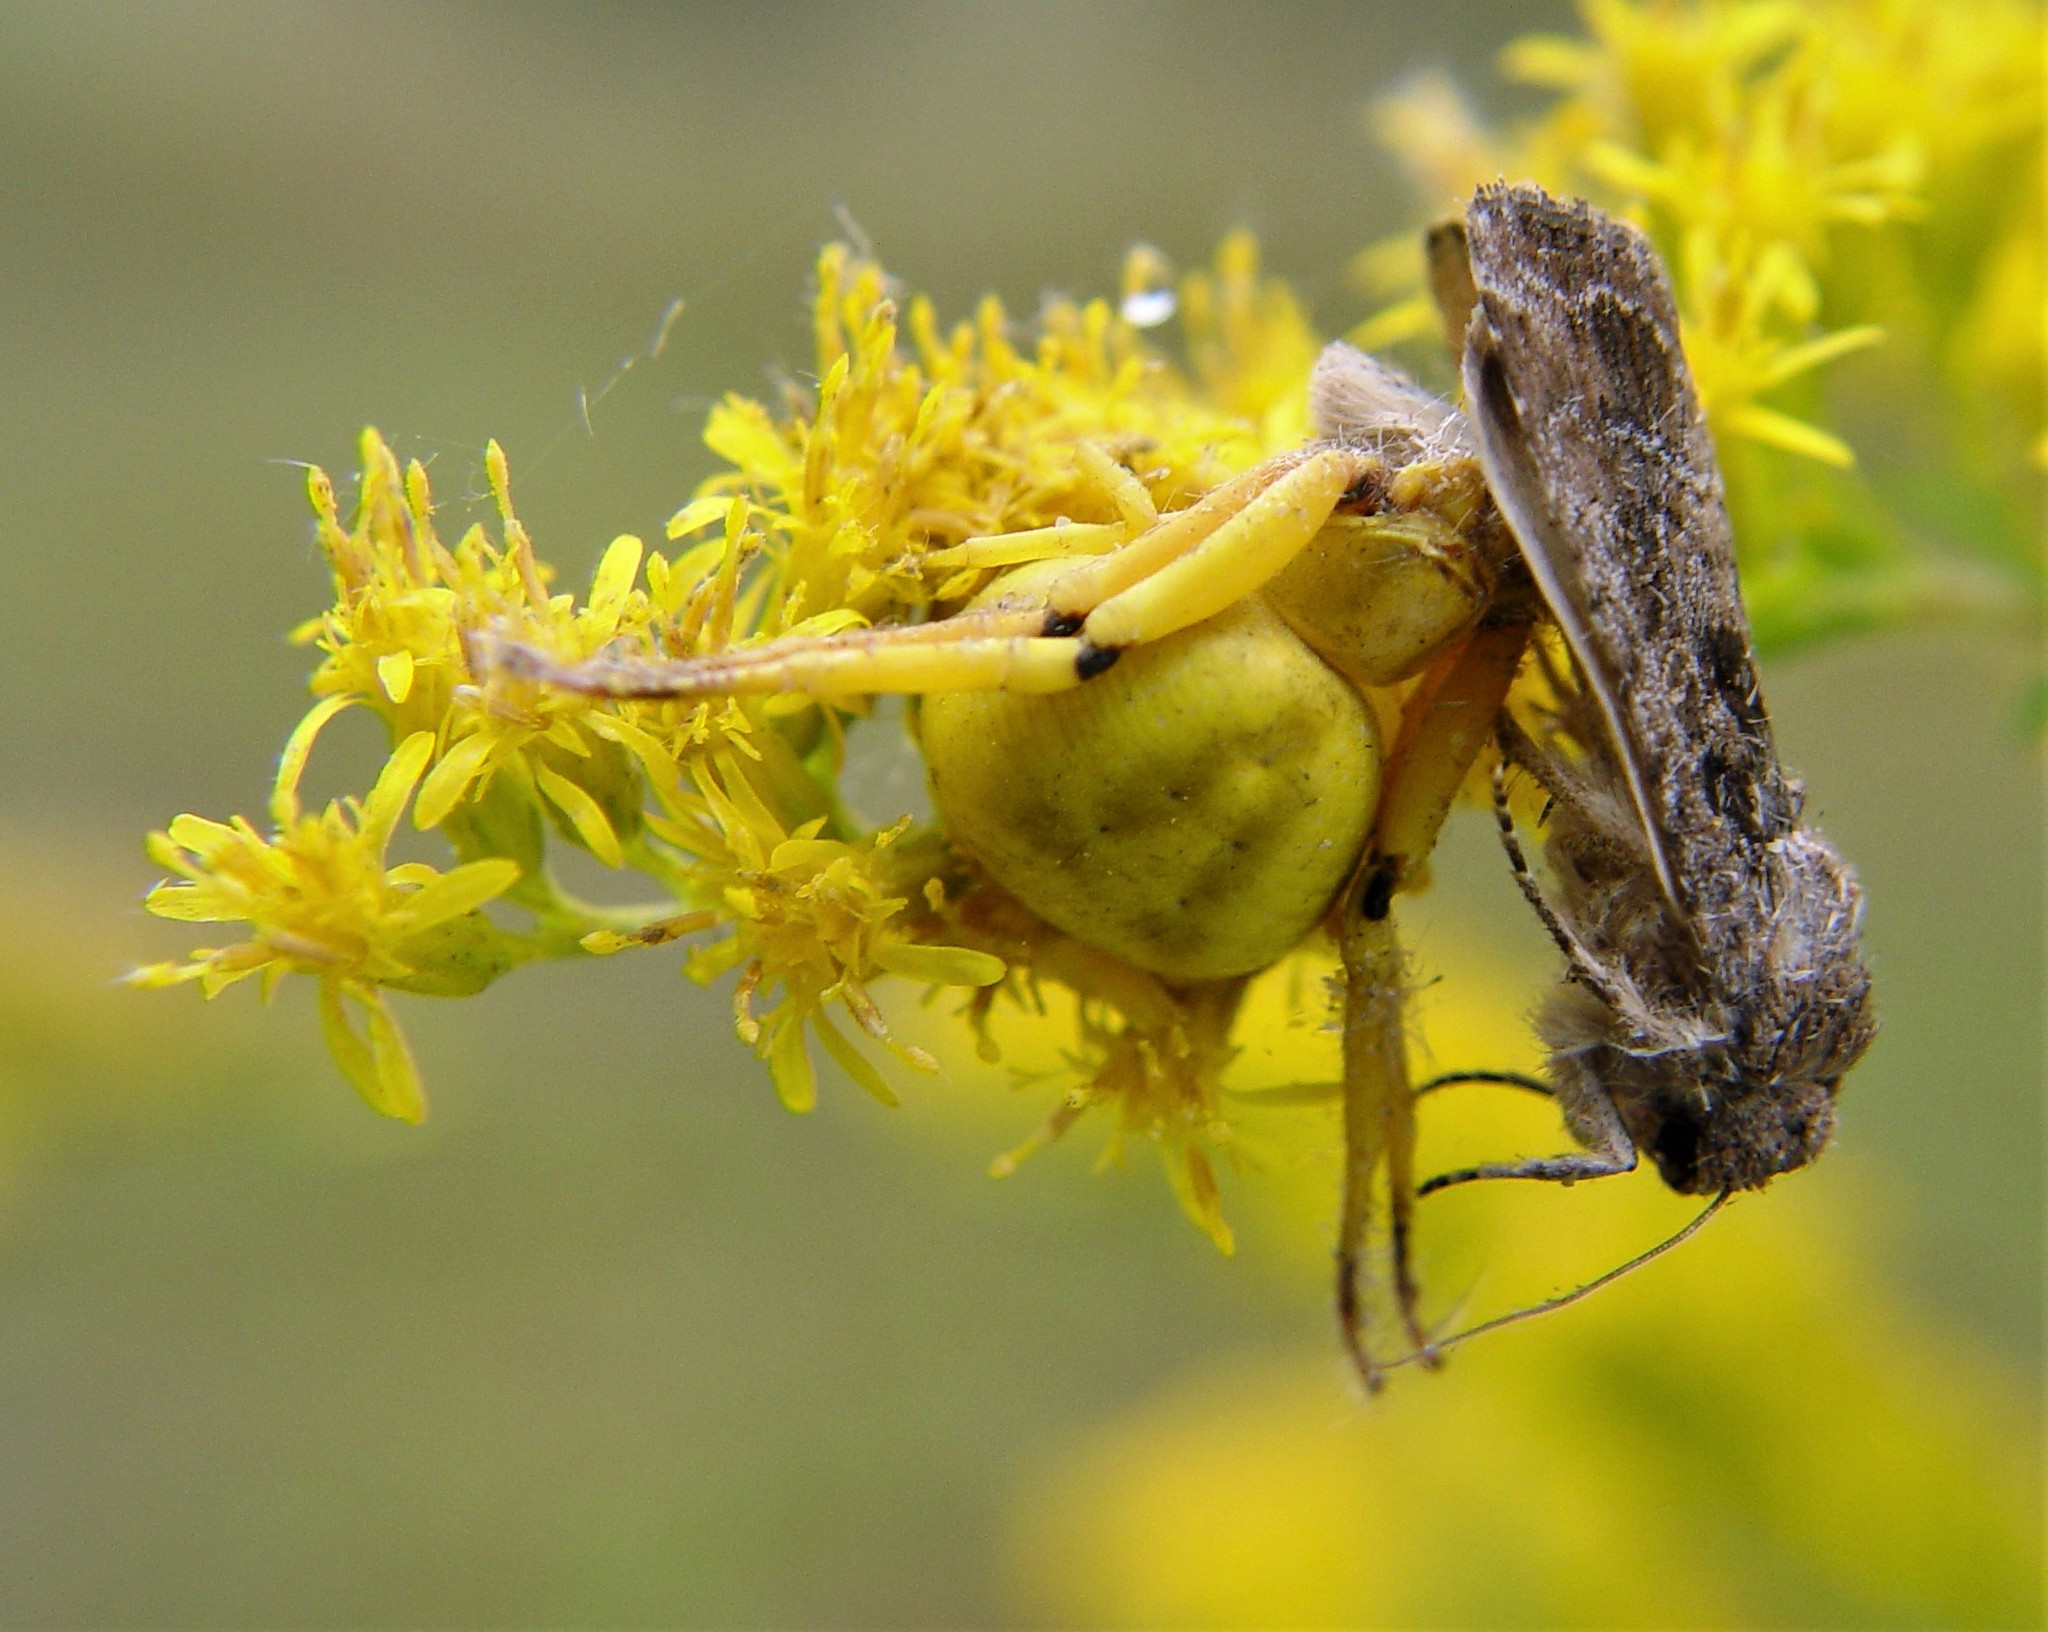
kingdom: Animalia
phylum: Arthropoda
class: Arachnida
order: Araneae
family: Thomisidae
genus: Misumenoides
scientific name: Misumenoides formosipes
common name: White-banded crab spider
